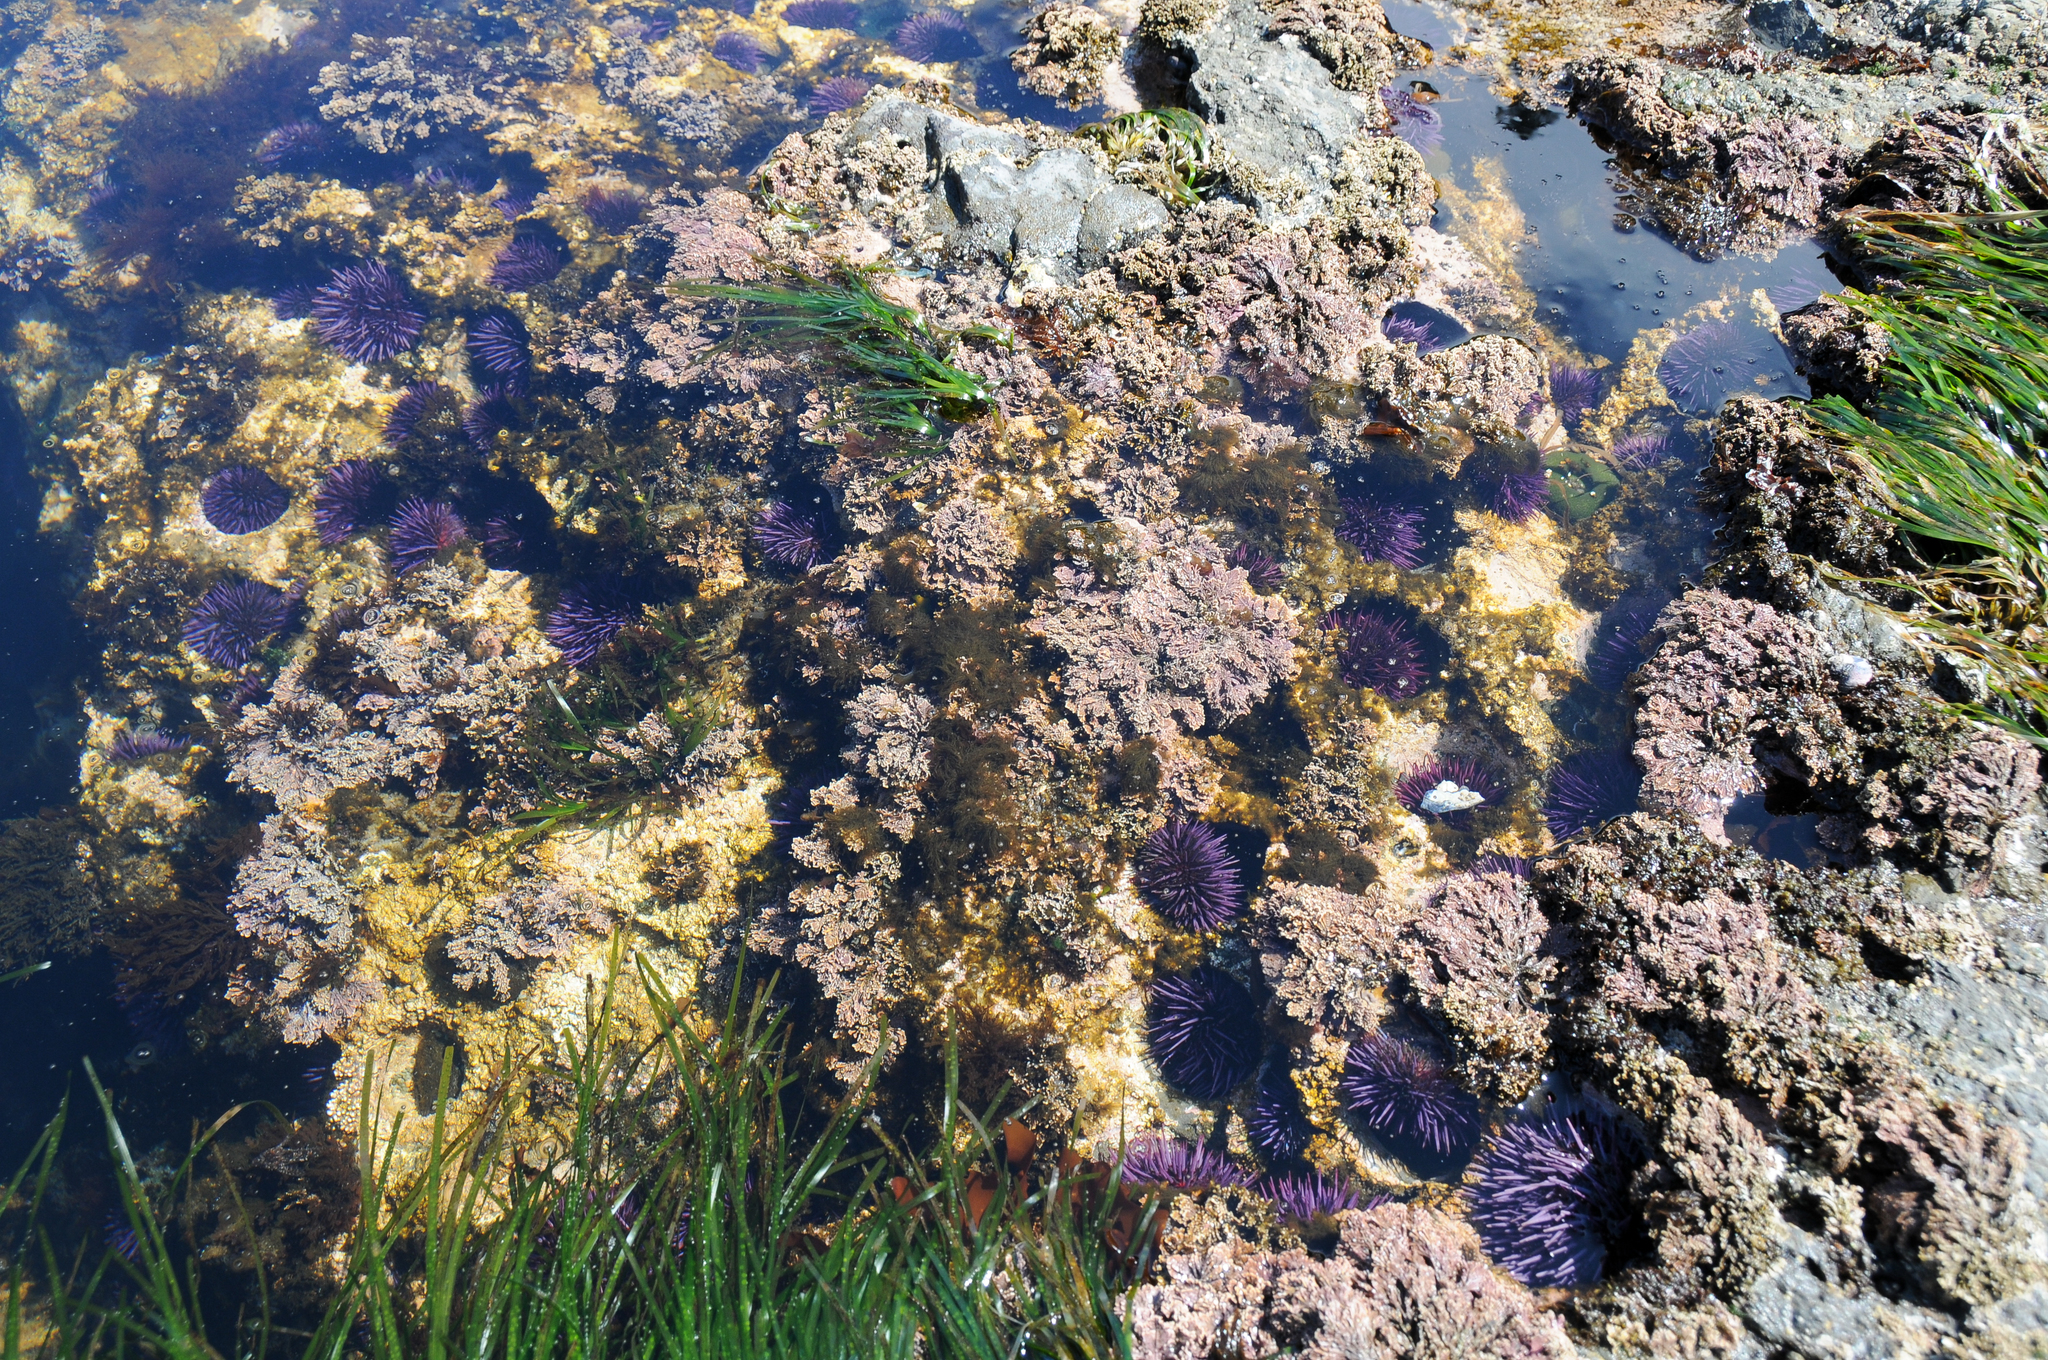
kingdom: Animalia
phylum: Echinodermata
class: Echinoidea
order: Camarodonta
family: Strongylocentrotidae
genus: Strongylocentrotus
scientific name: Strongylocentrotus purpuratus
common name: Purple sea urchin
